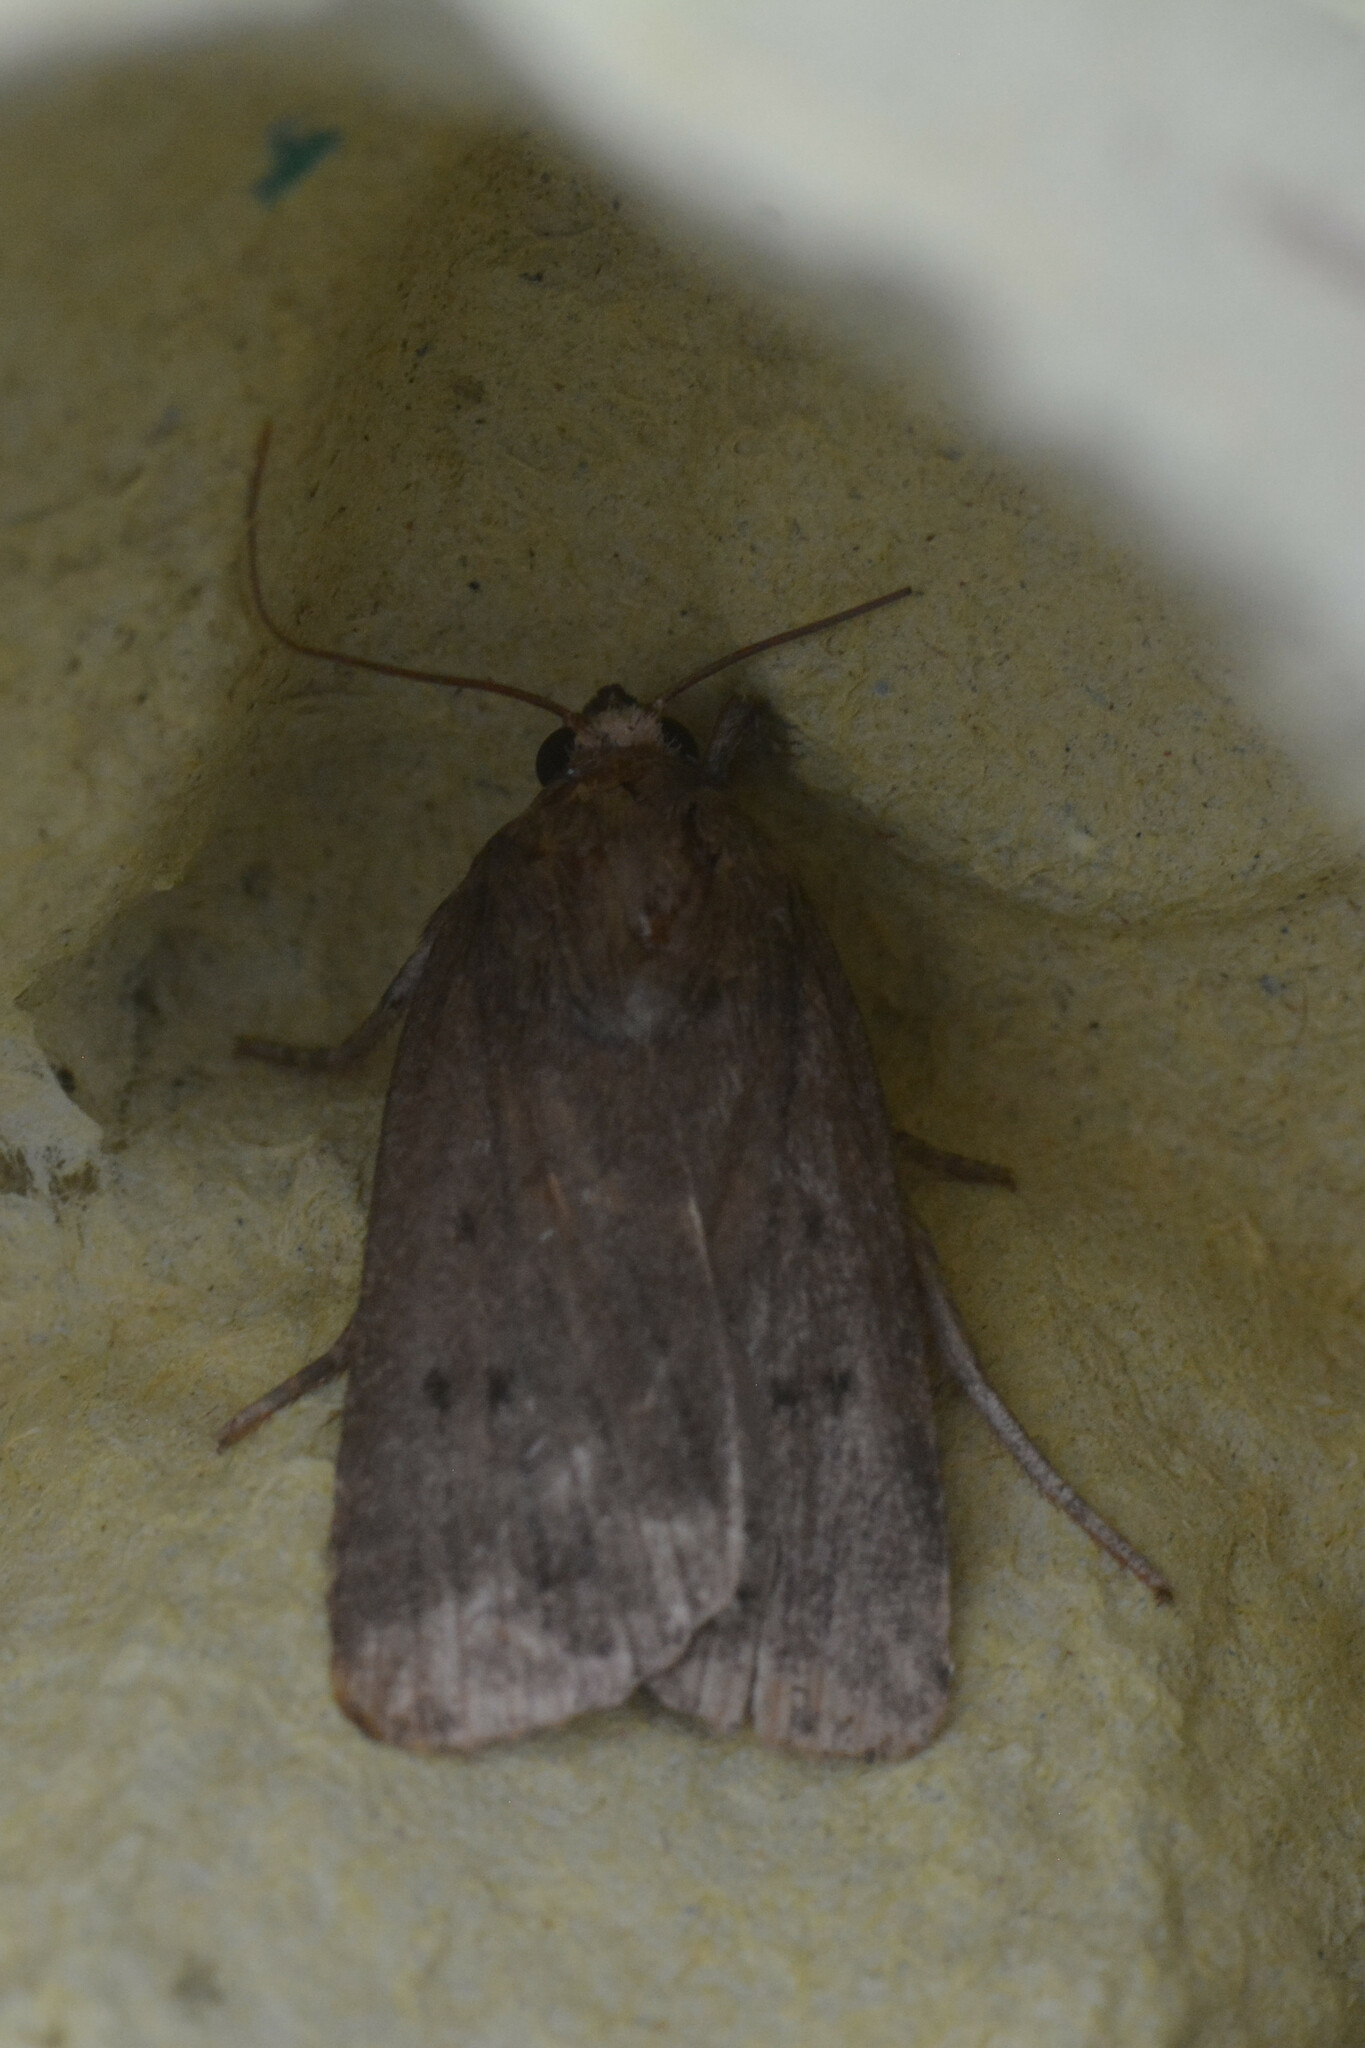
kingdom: Animalia
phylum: Arthropoda
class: Insecta
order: Lepidoptera
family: Noctuidae
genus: Amphipyra
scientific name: Amphipyra tragopoginis
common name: Mouse moth
